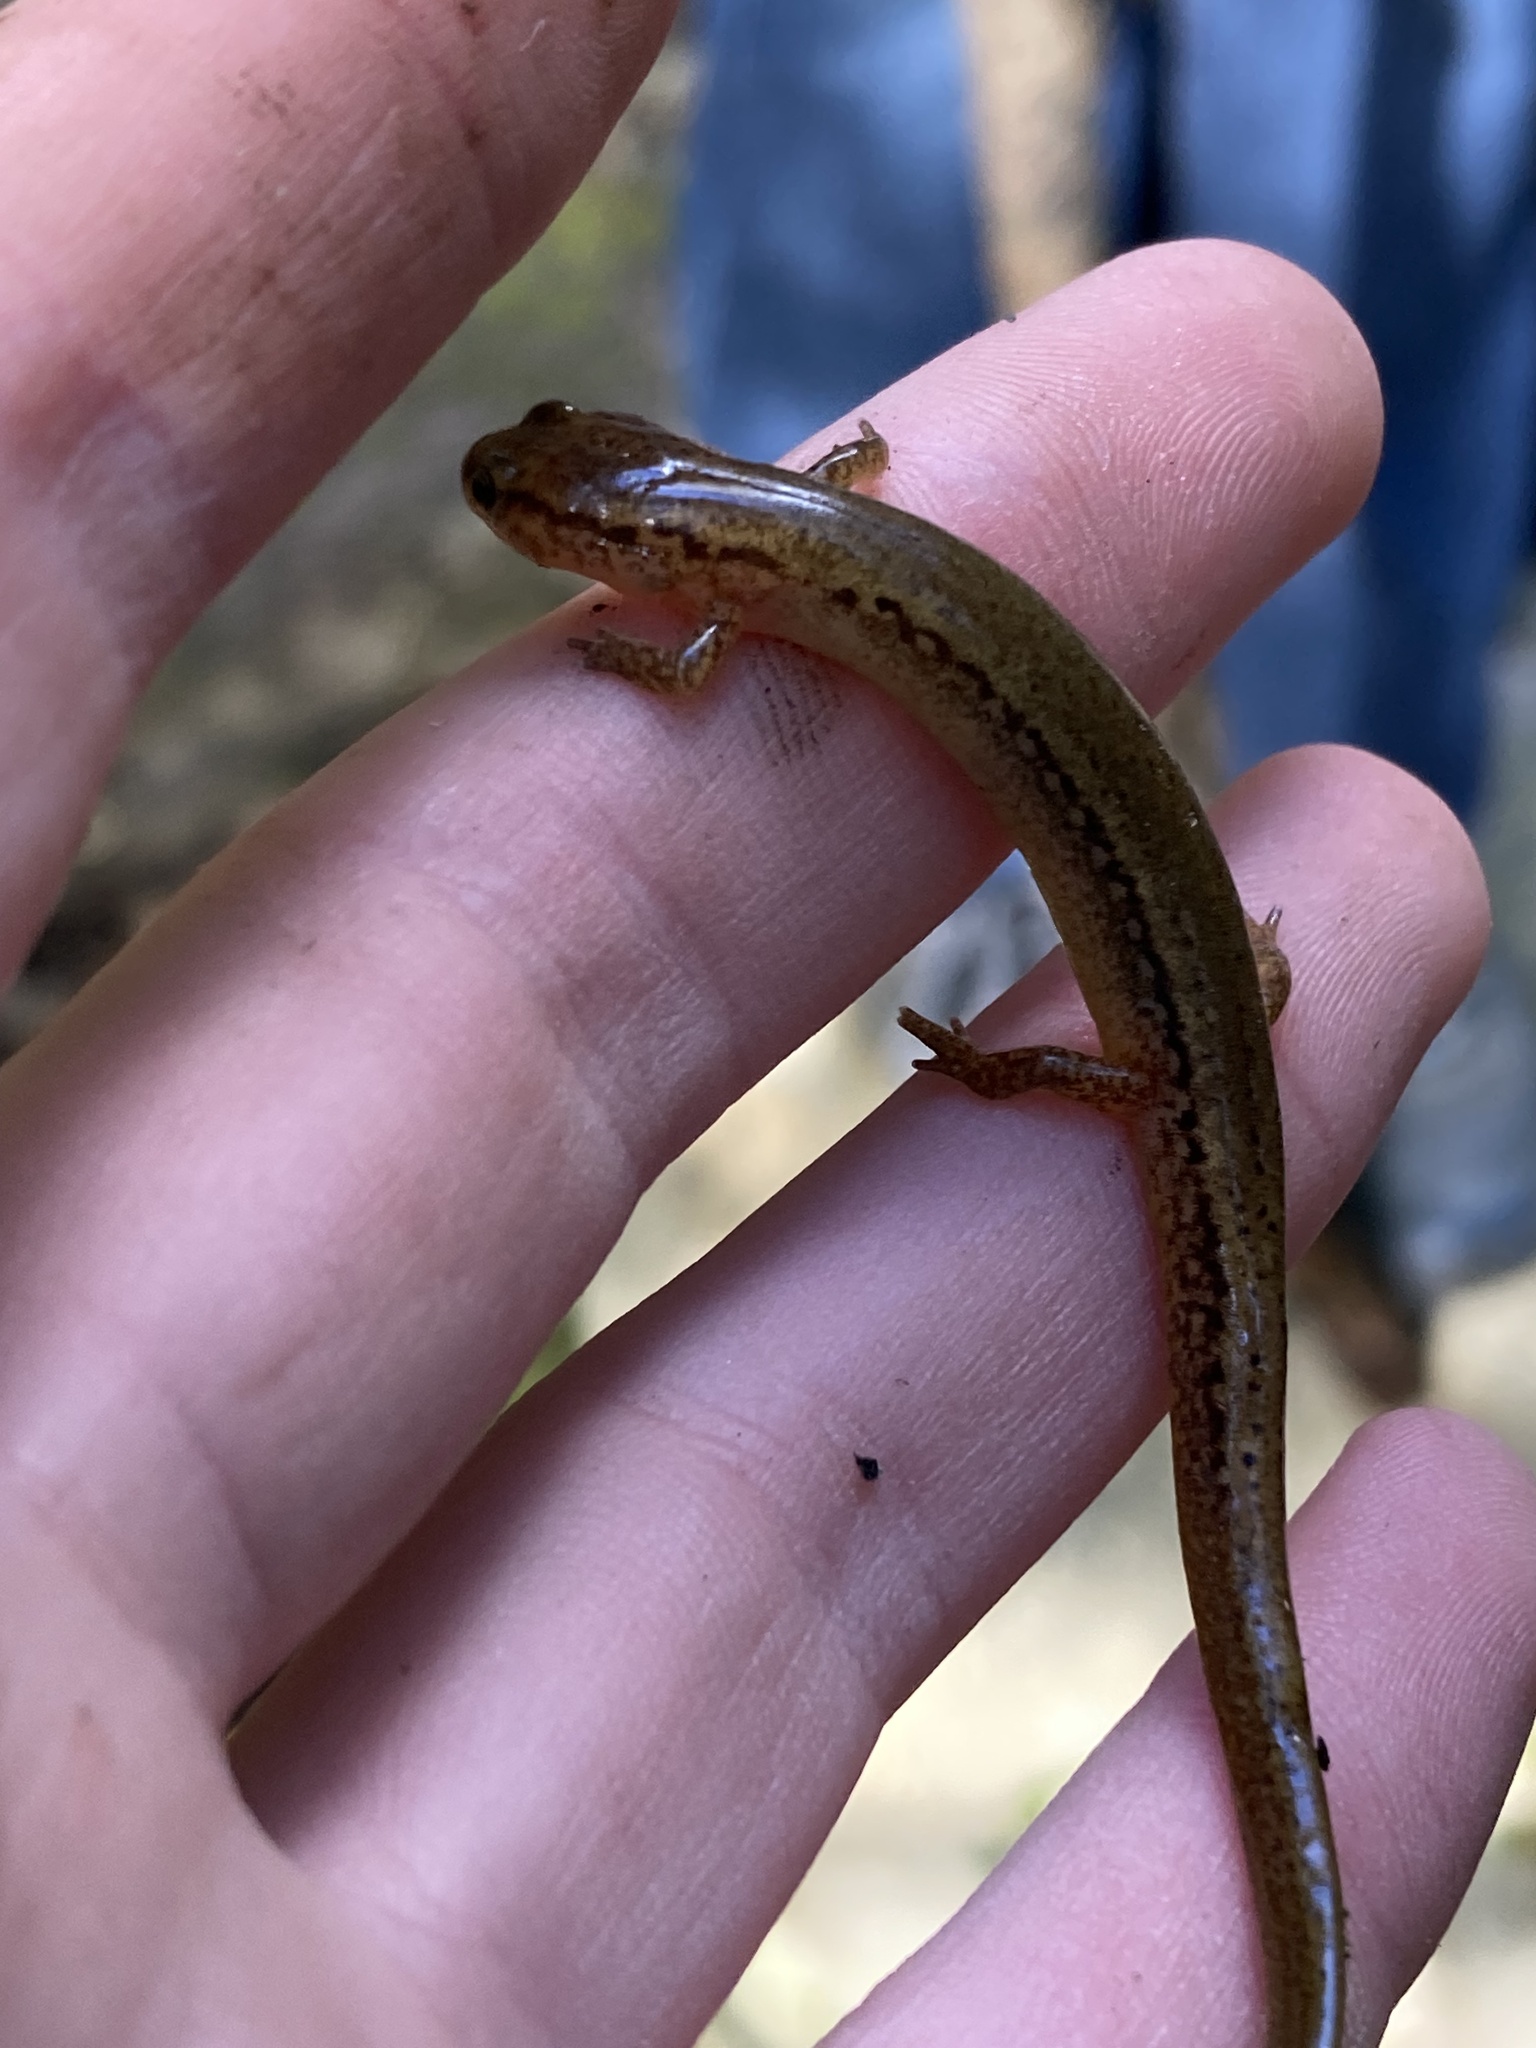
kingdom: Animalia
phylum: Chordata
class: Amphibia
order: Caudata
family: Plethodontidae
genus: Eurycea
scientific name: Eurycea bislineata
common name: Northern two-lined salamander
